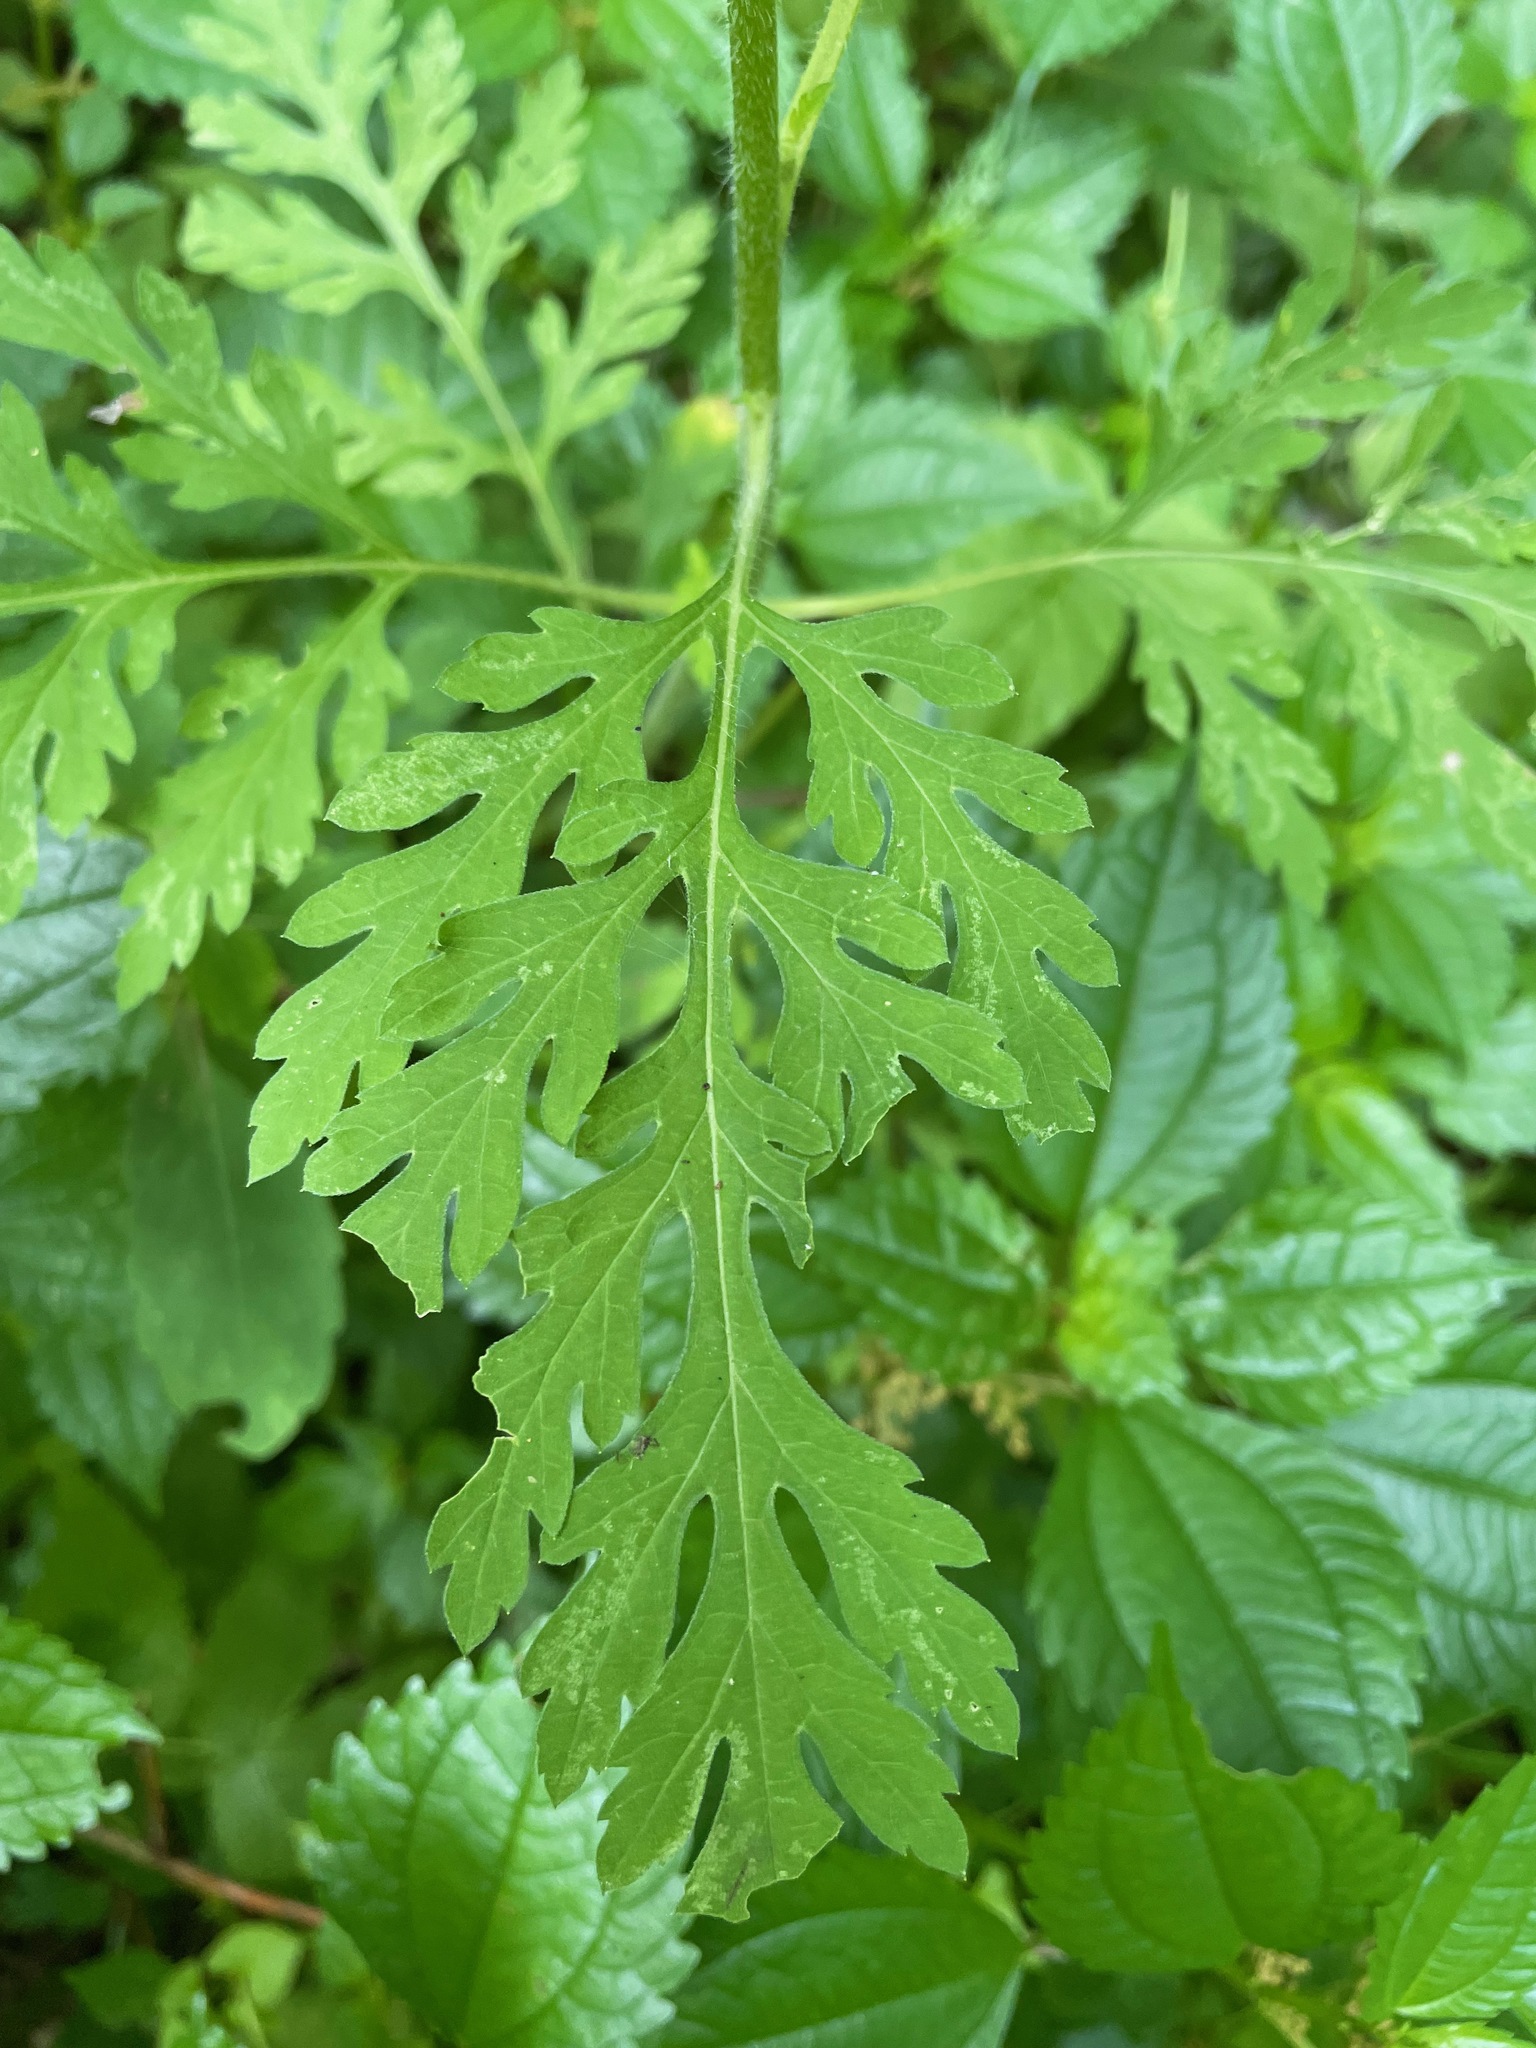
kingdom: Plantae
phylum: Tracheophyta
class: Magnoliopsida
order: Asterales
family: Asteraceae
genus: Ambrosia
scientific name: Ambrosia artemisiifolia
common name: Annual ragweed
